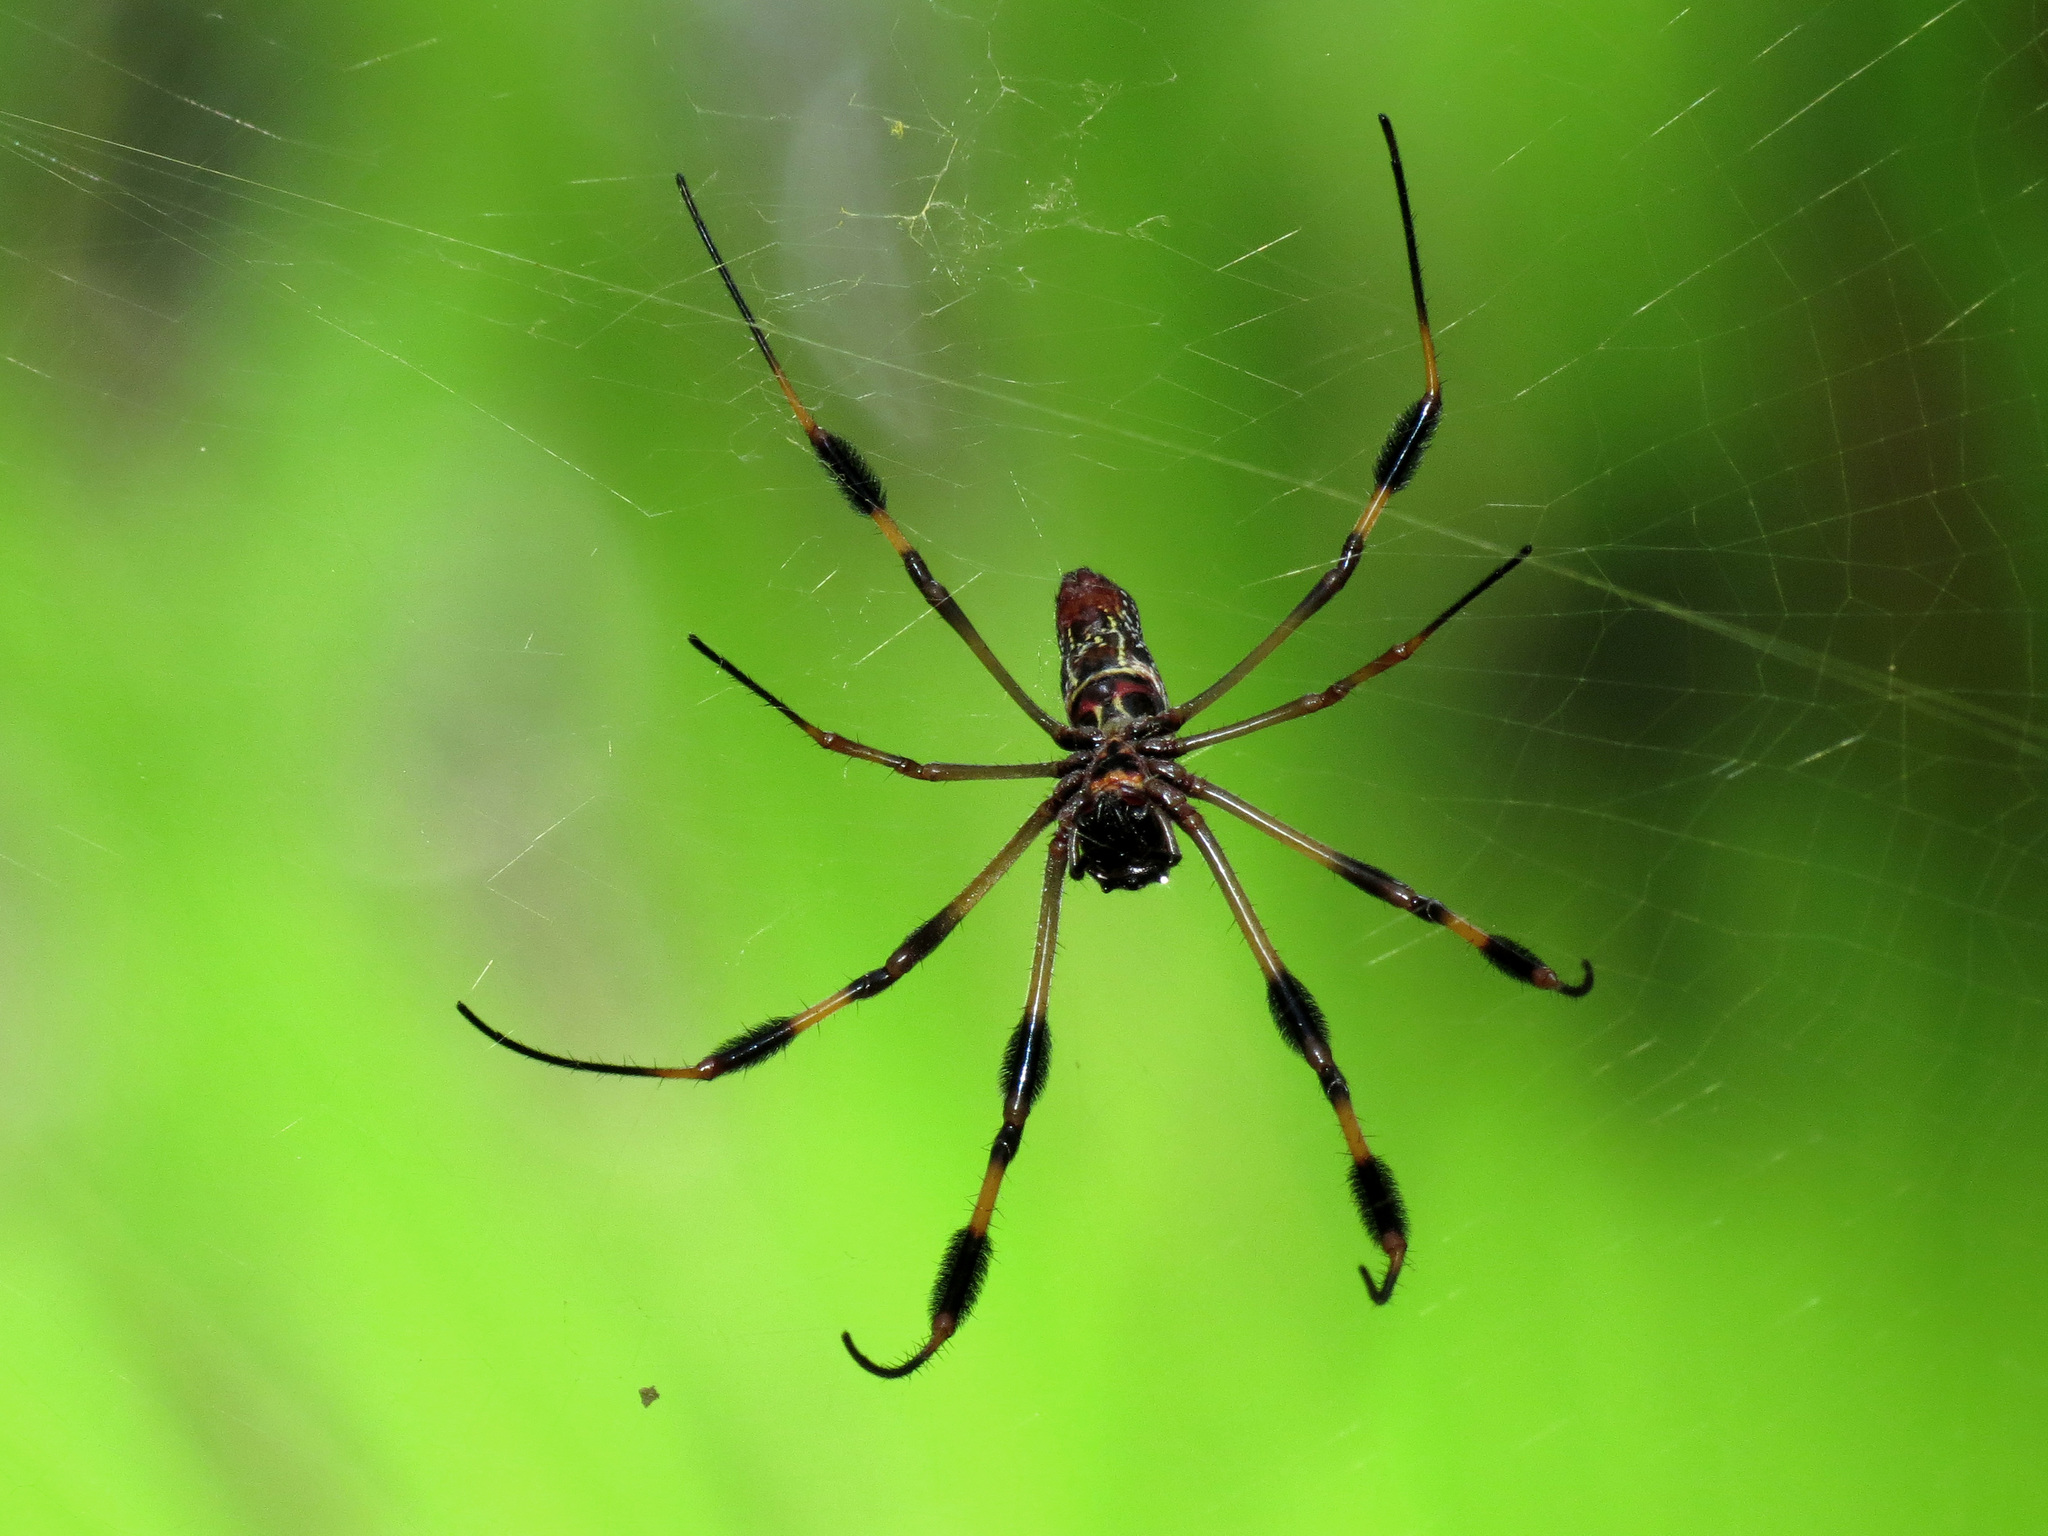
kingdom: Animalia
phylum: Arthropoda
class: Arachnida
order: Araneae
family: Araneidae
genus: Trichonephila
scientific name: Trichonephila clavipes
